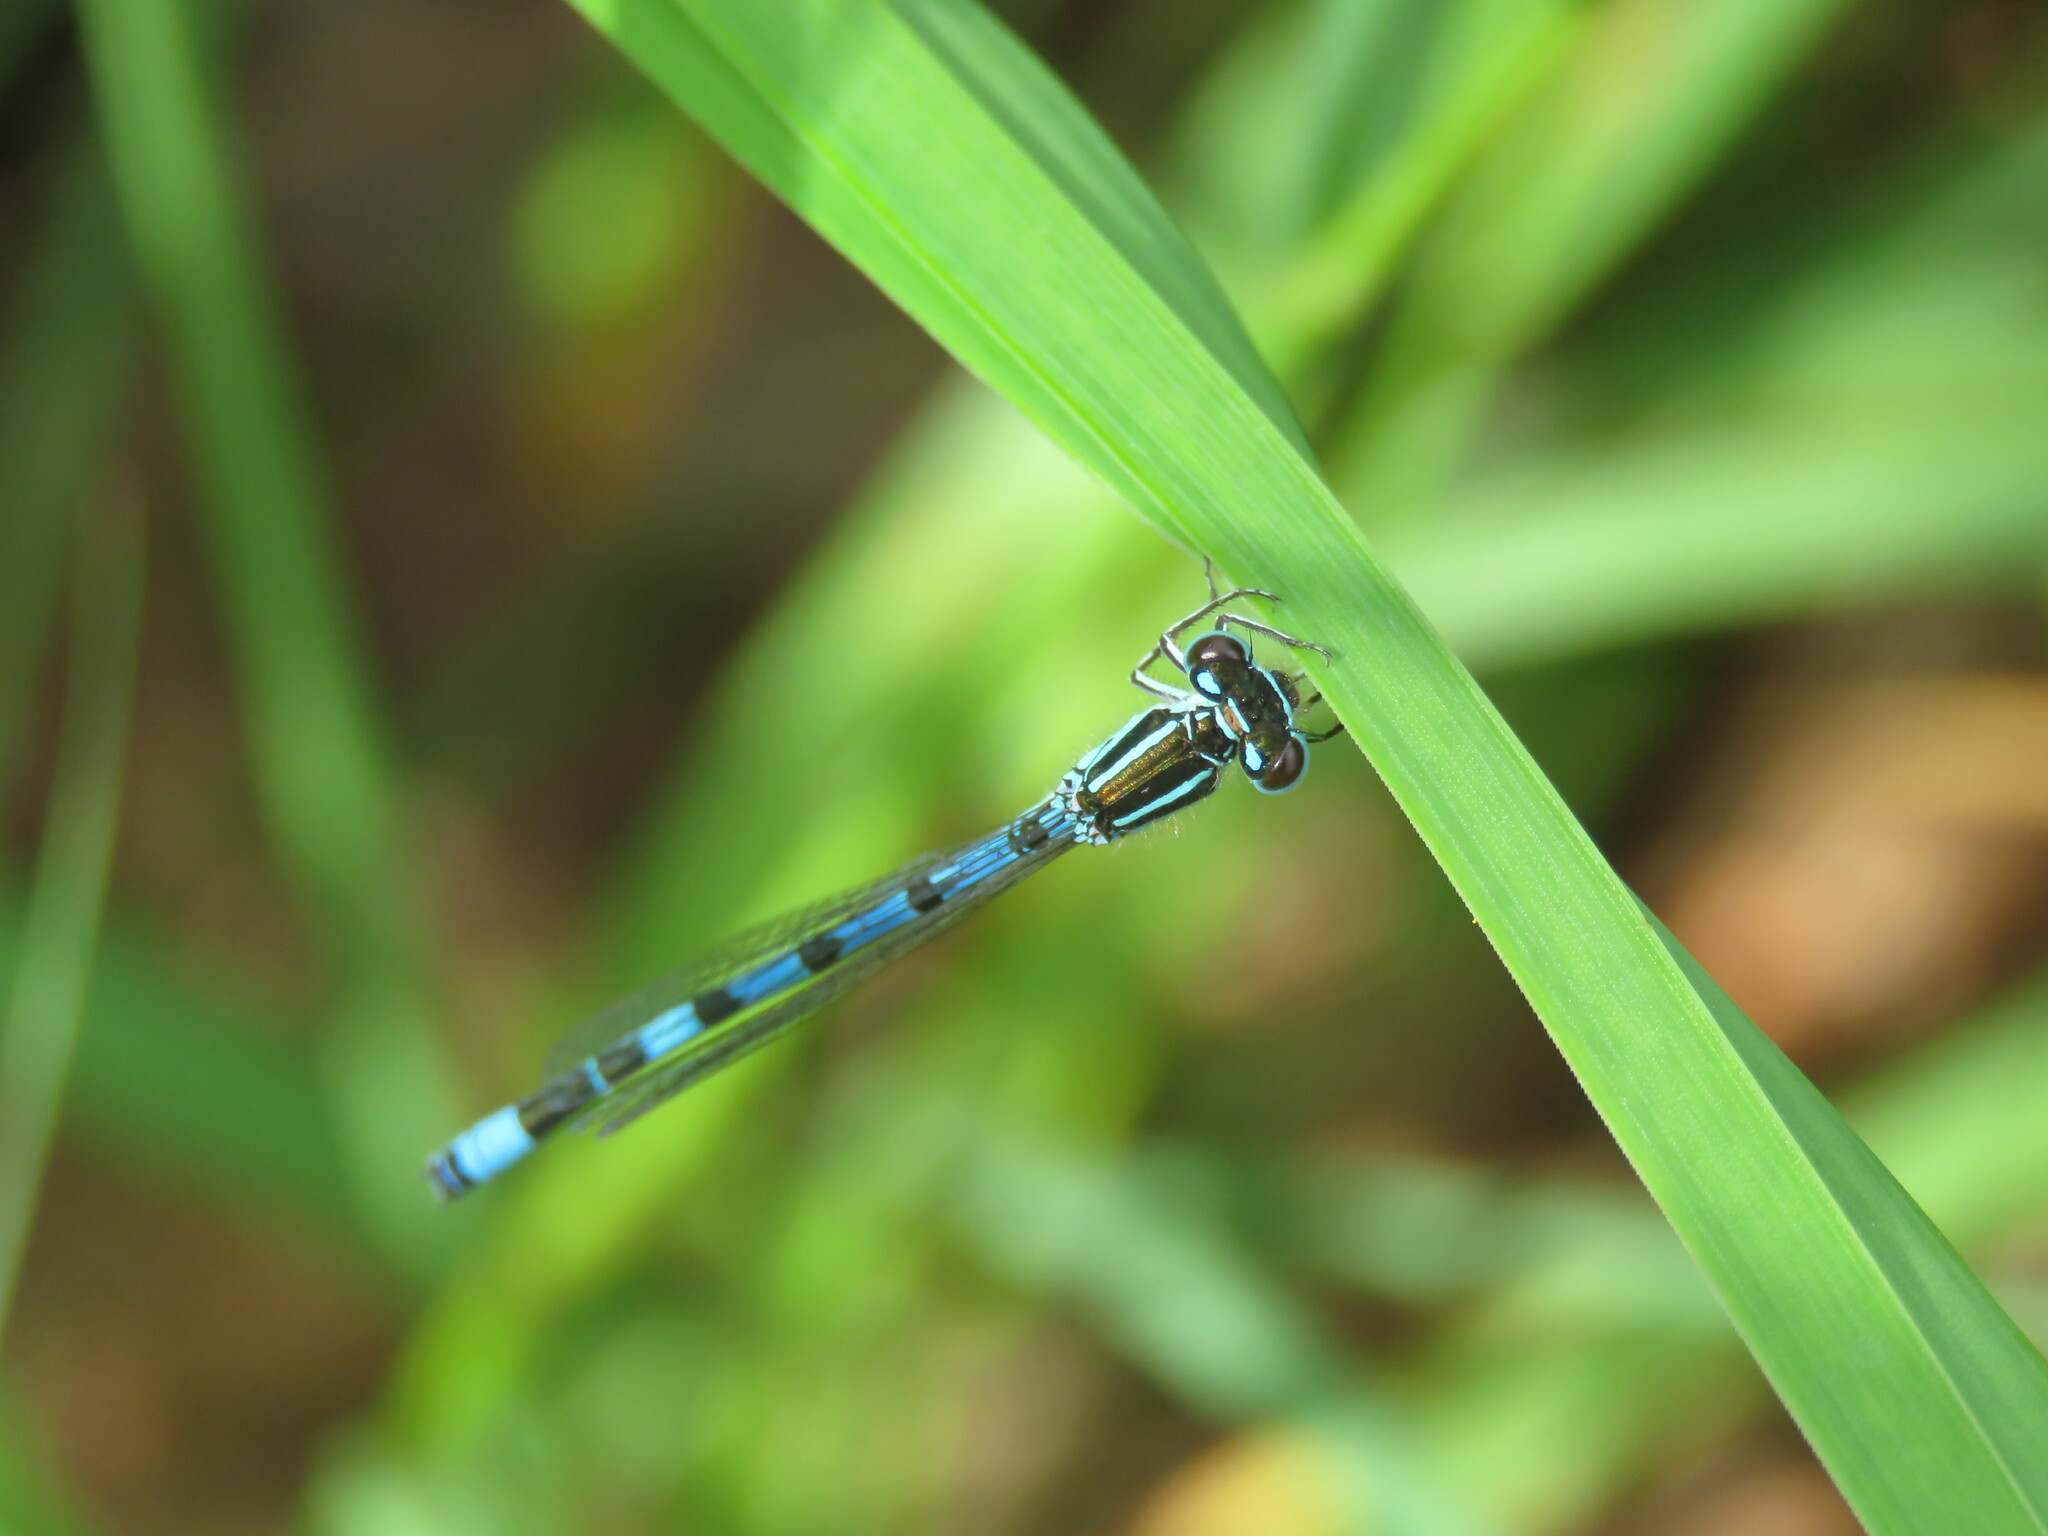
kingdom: Animalia
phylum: Arthropoda
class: Insecta
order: Odonata
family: Coenagrionidae
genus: Coenagrion
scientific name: Coenagrion mercuriale
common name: Southern damselfly
